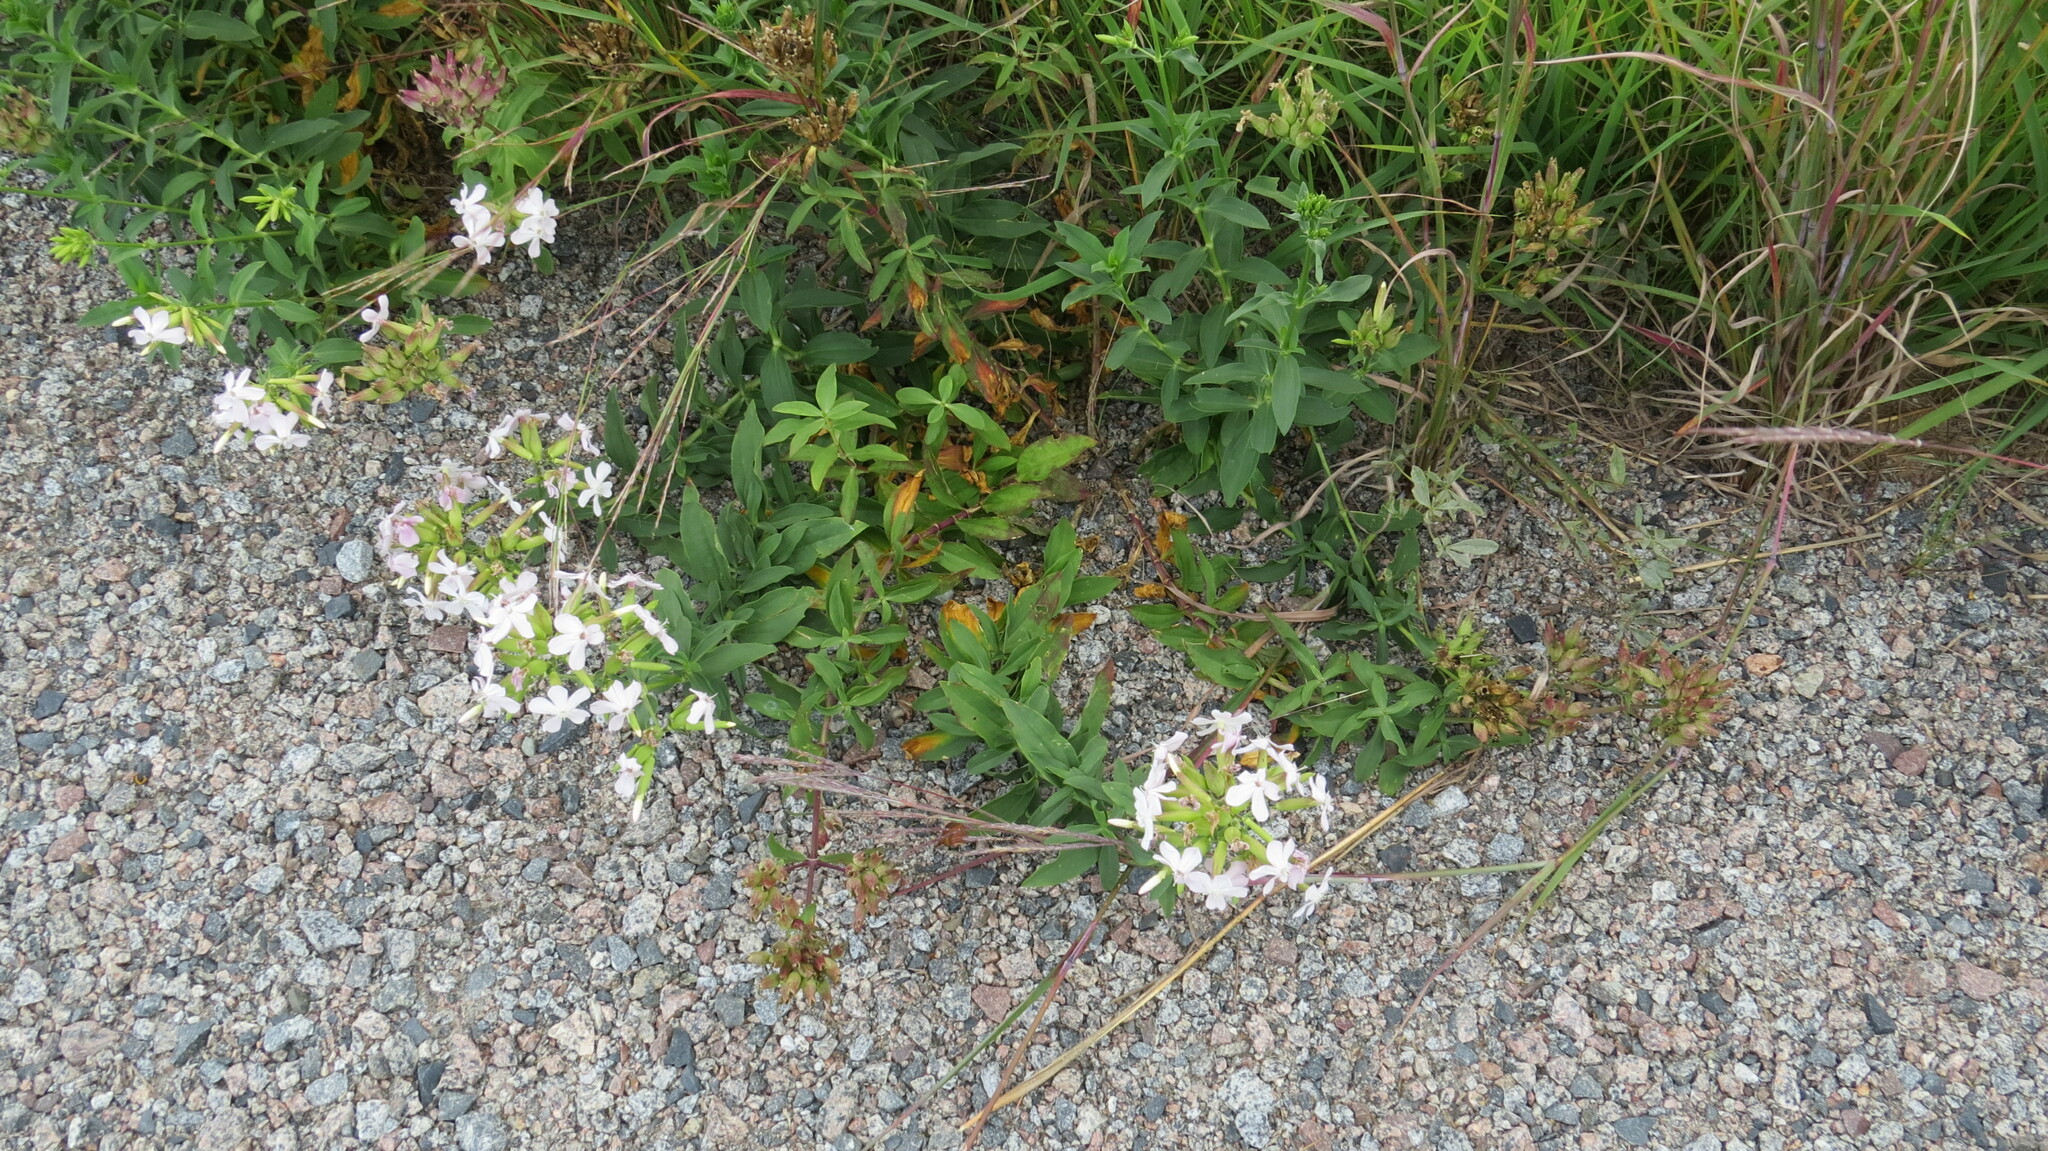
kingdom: Plantae
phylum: Tracheophyta
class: Magnoliopsida
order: Caryophyllales
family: Caryophyllaceae
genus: Saponaria
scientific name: Saponaria officinalis
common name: Soapwort
